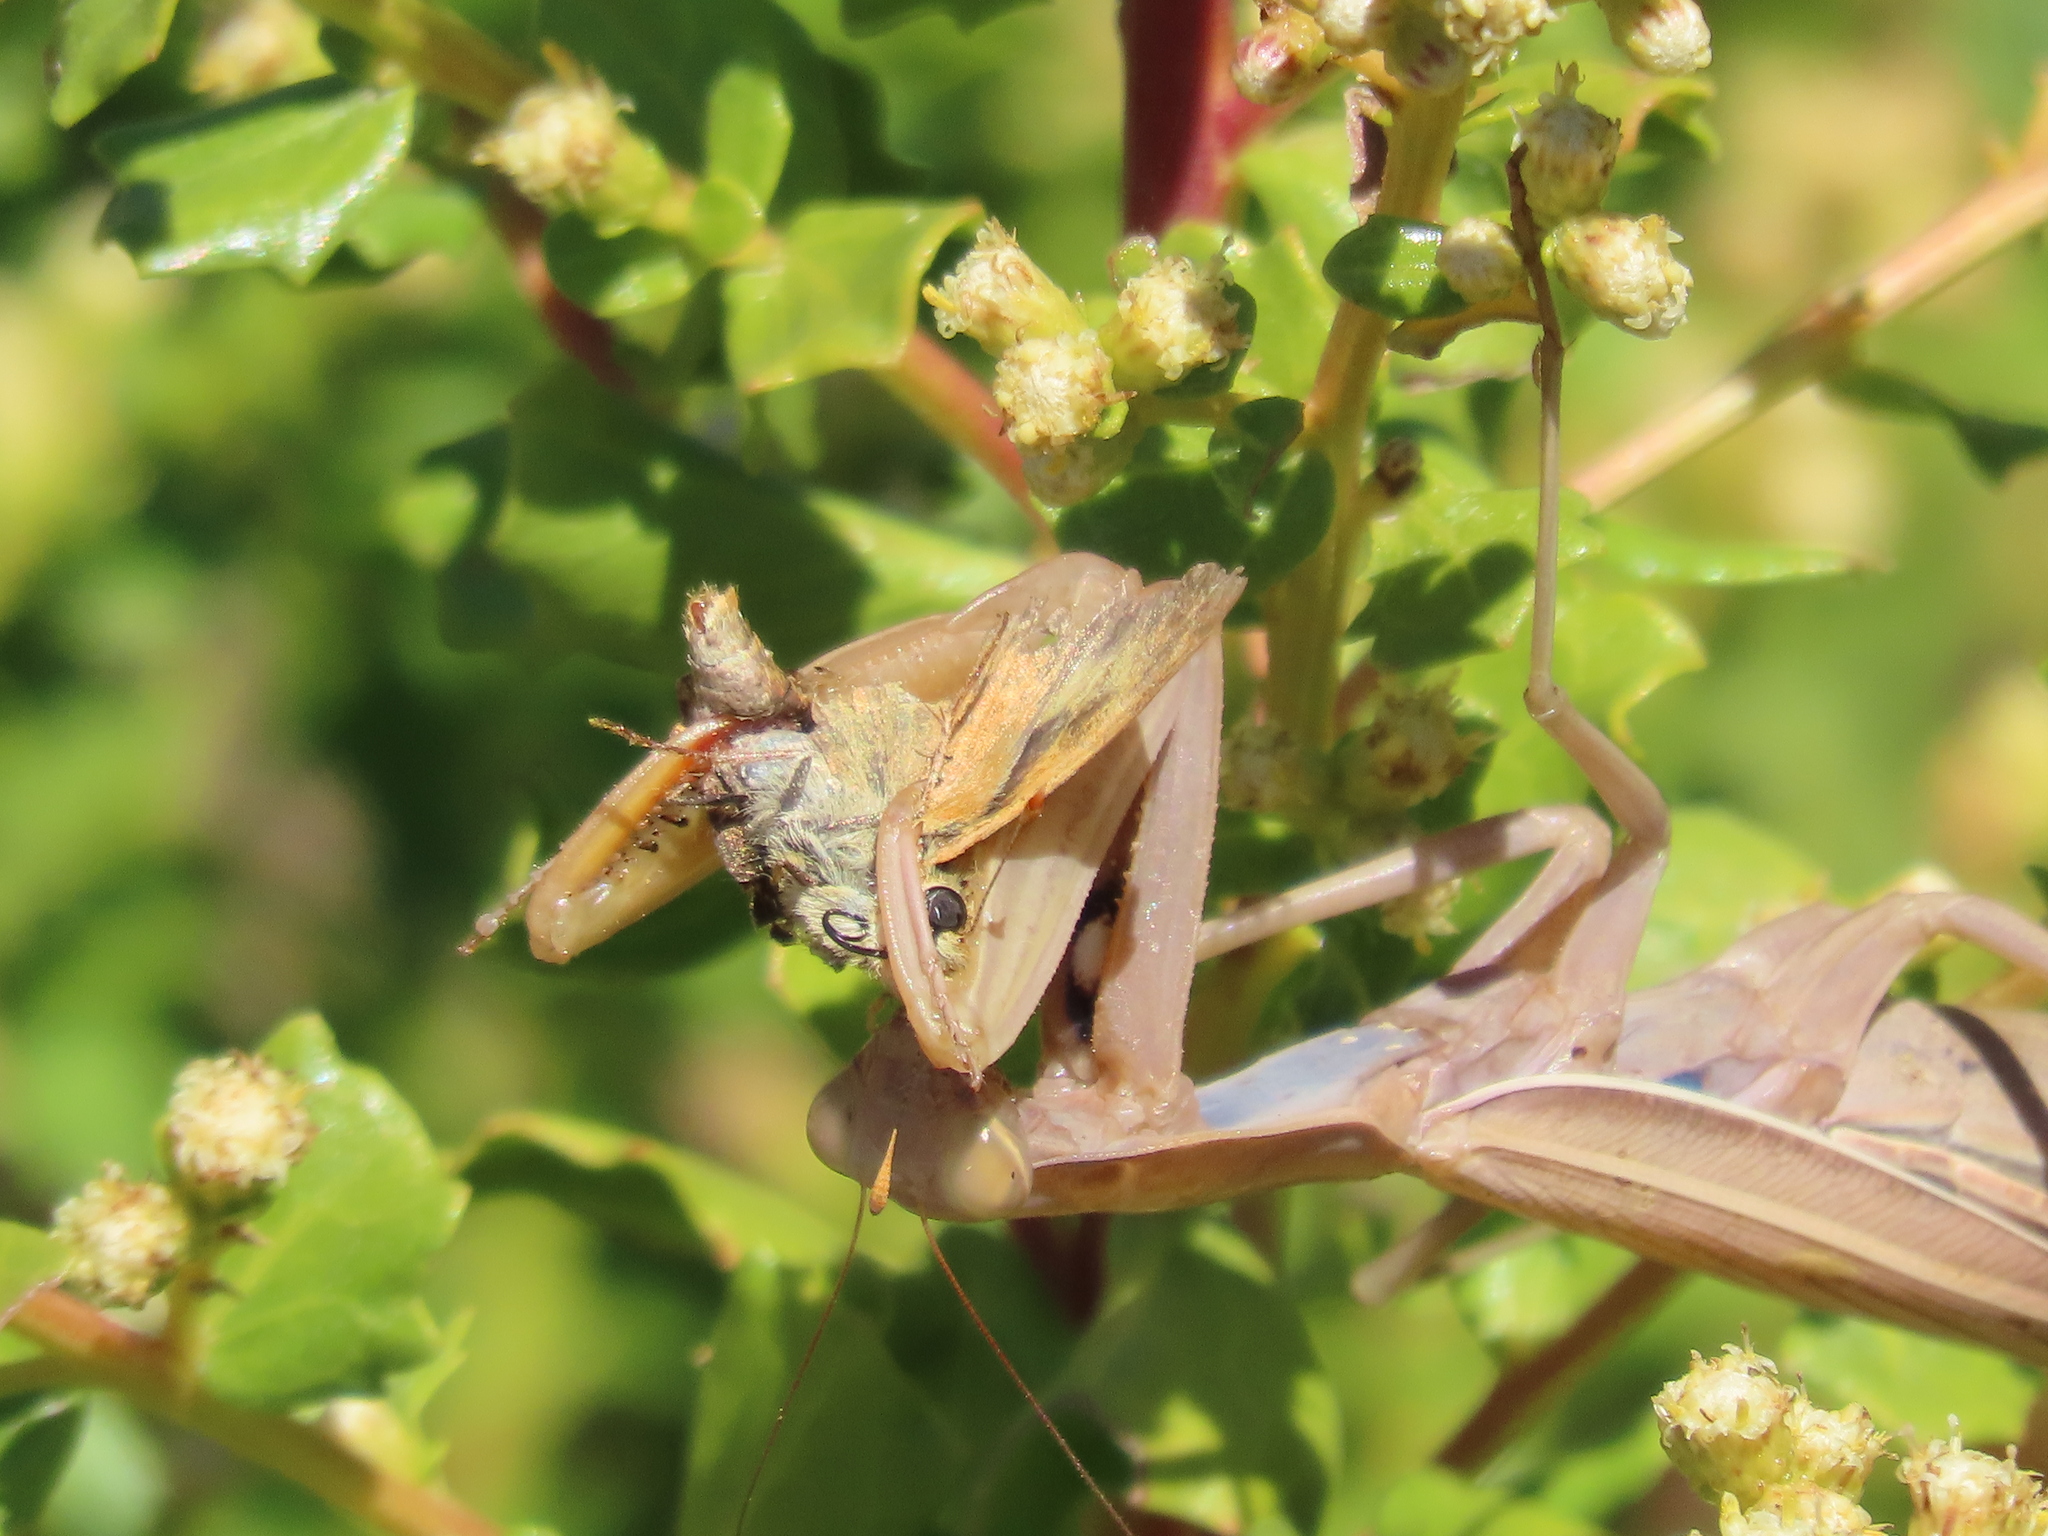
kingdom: Animalia
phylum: Arthropoda
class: Insecta
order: Mantodea
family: Mantidae
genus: Mantis
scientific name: Mantis religiosa
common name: Praying mantis
